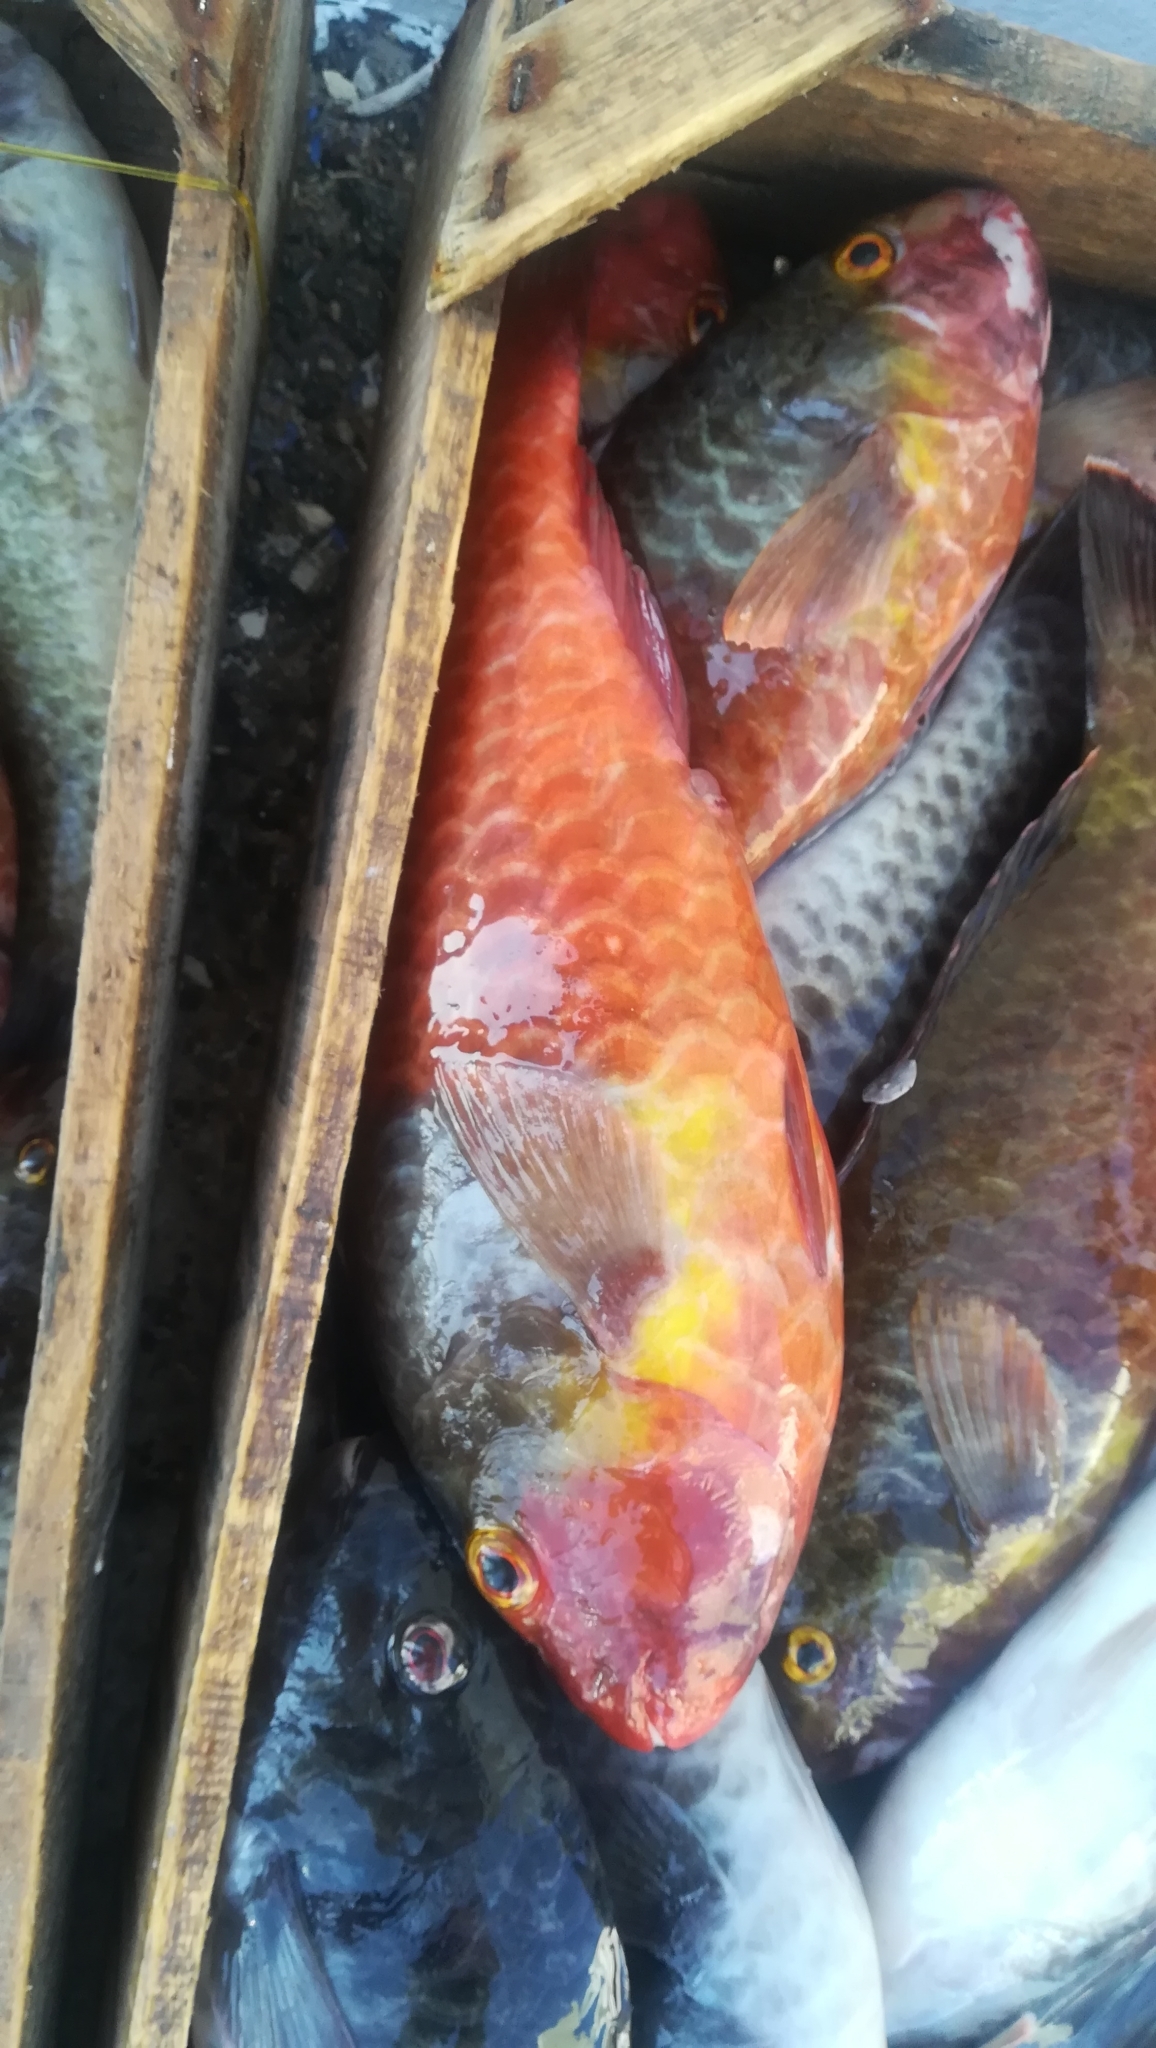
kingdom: Animalia
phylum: Chordata
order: Perciformes
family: Scaridae
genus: Sparisoma
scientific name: Sparisoma cretense
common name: Parrotfish
